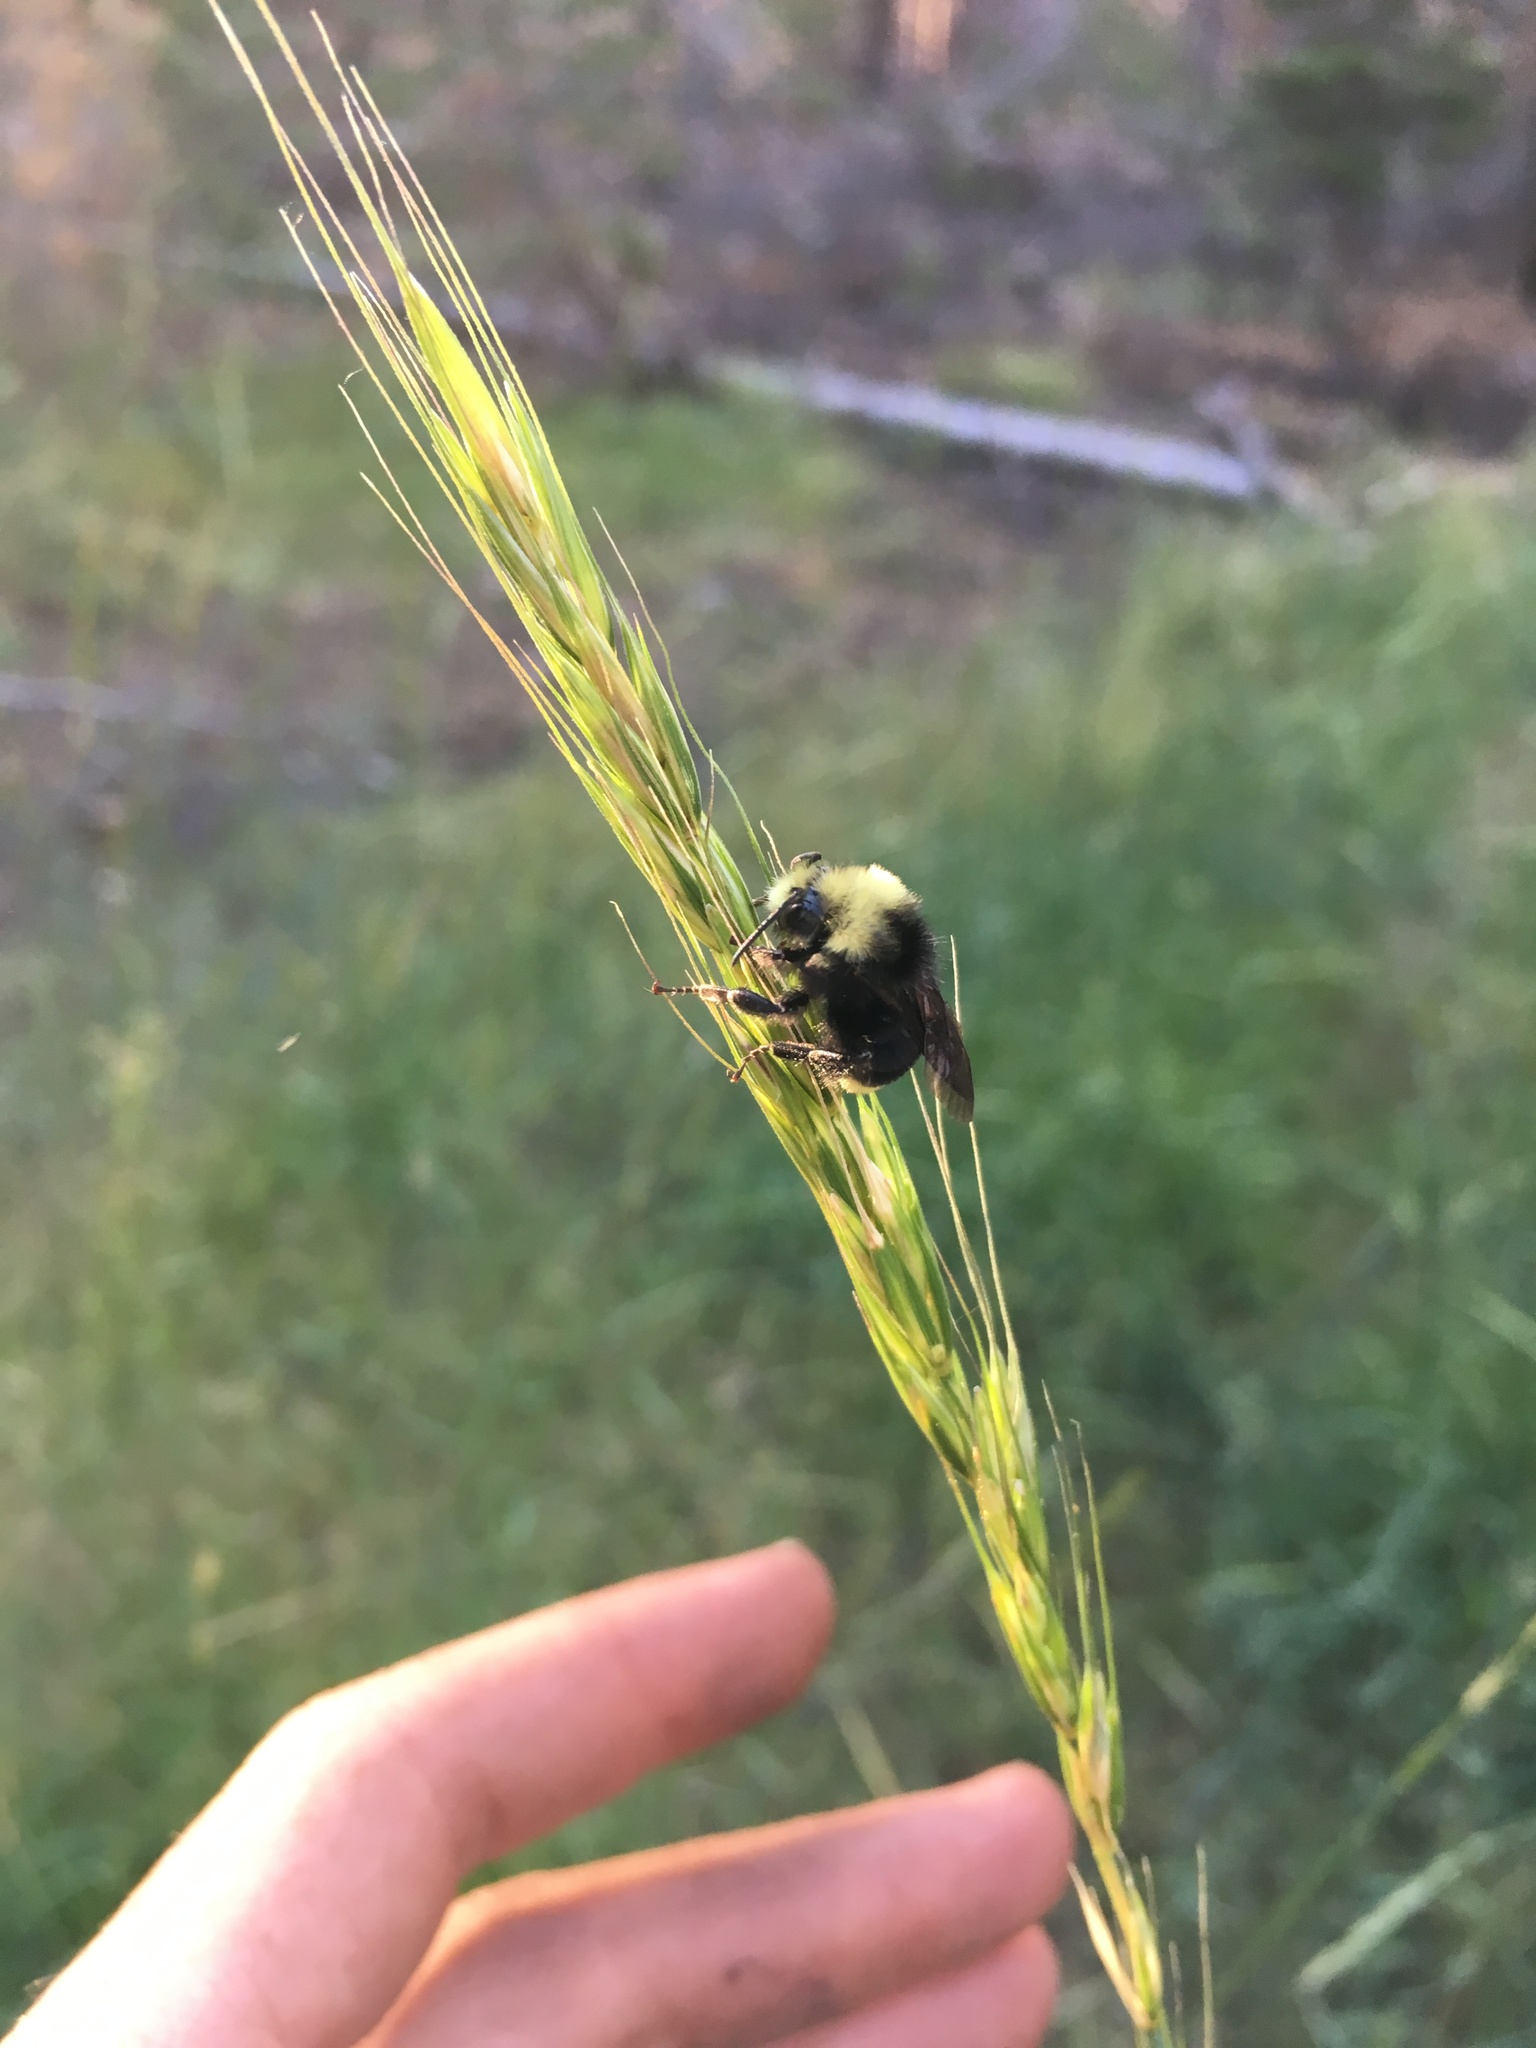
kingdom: Animalia
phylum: Arthropoda
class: Insecta
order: Hymenoptera
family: Apidae
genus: Bombus
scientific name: Bombus vosnesenskii
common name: Vosnesensky bumble bee
